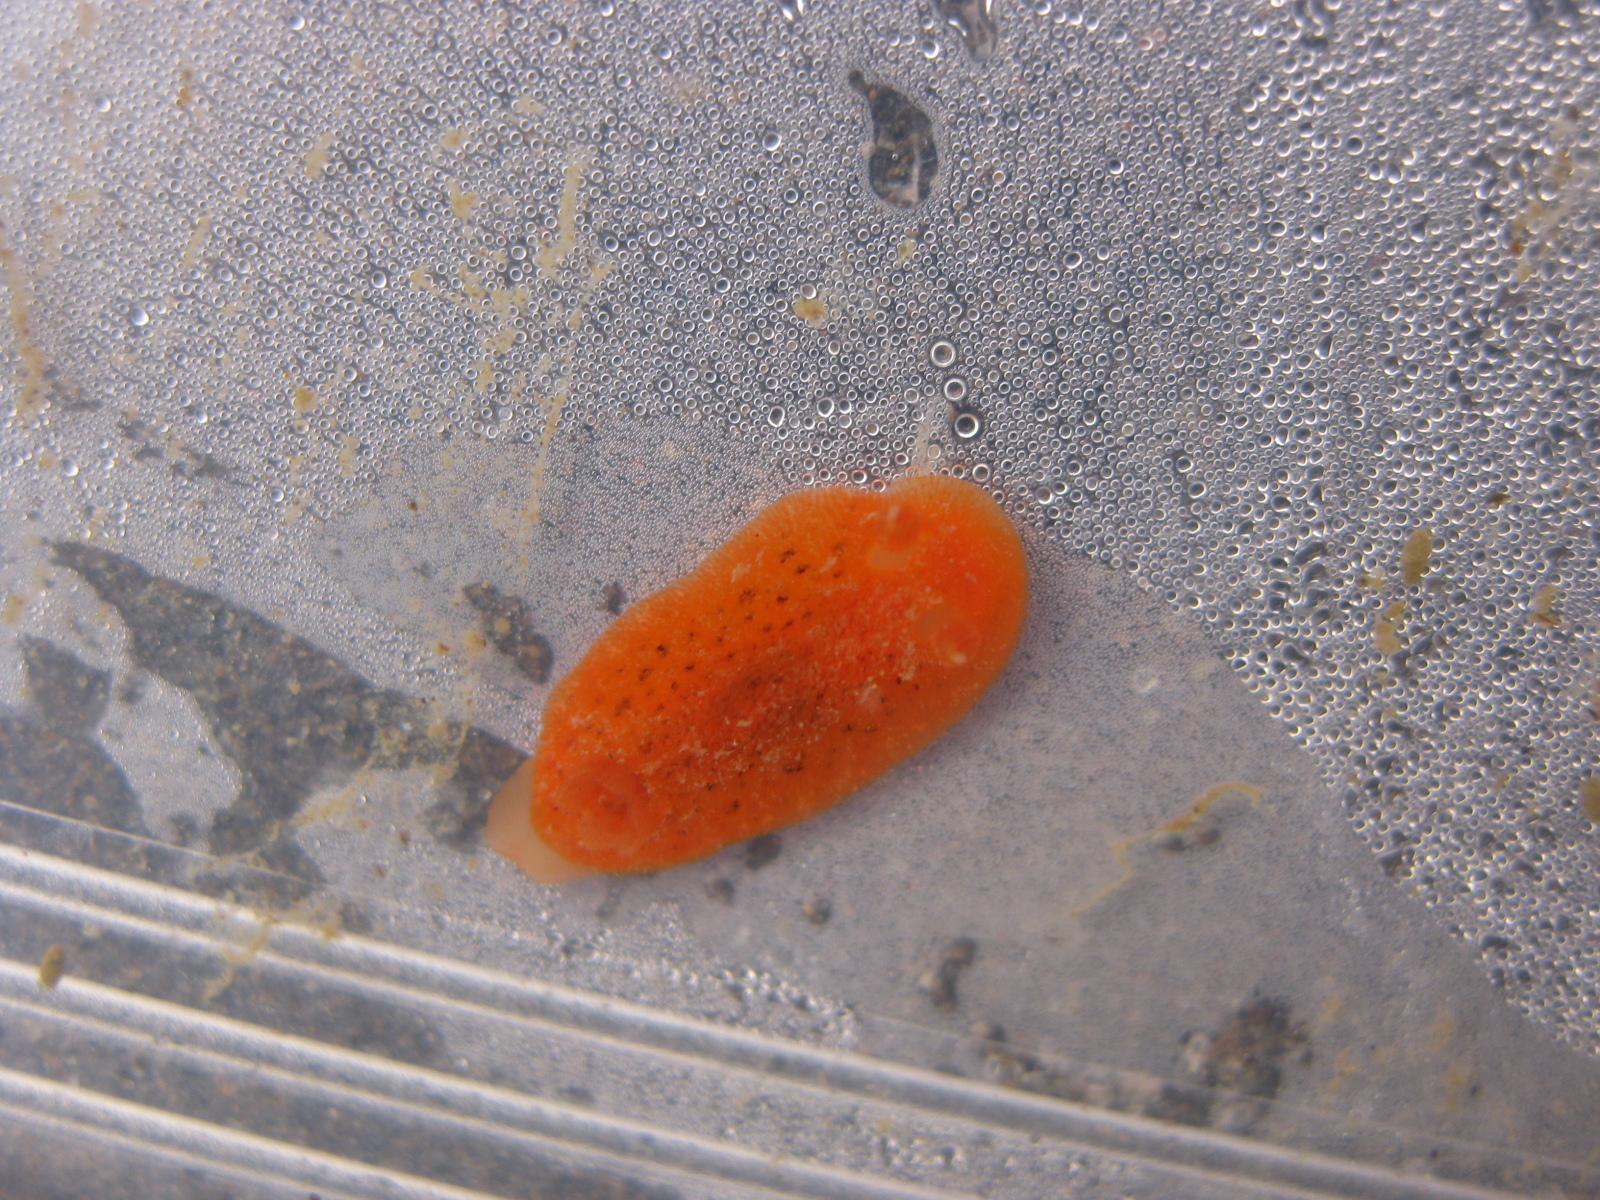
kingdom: Animalia
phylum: Mollusca
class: Gastropoda
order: Nudibranchia
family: Discodorididae
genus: Rostanga
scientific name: Rostanga muscula
